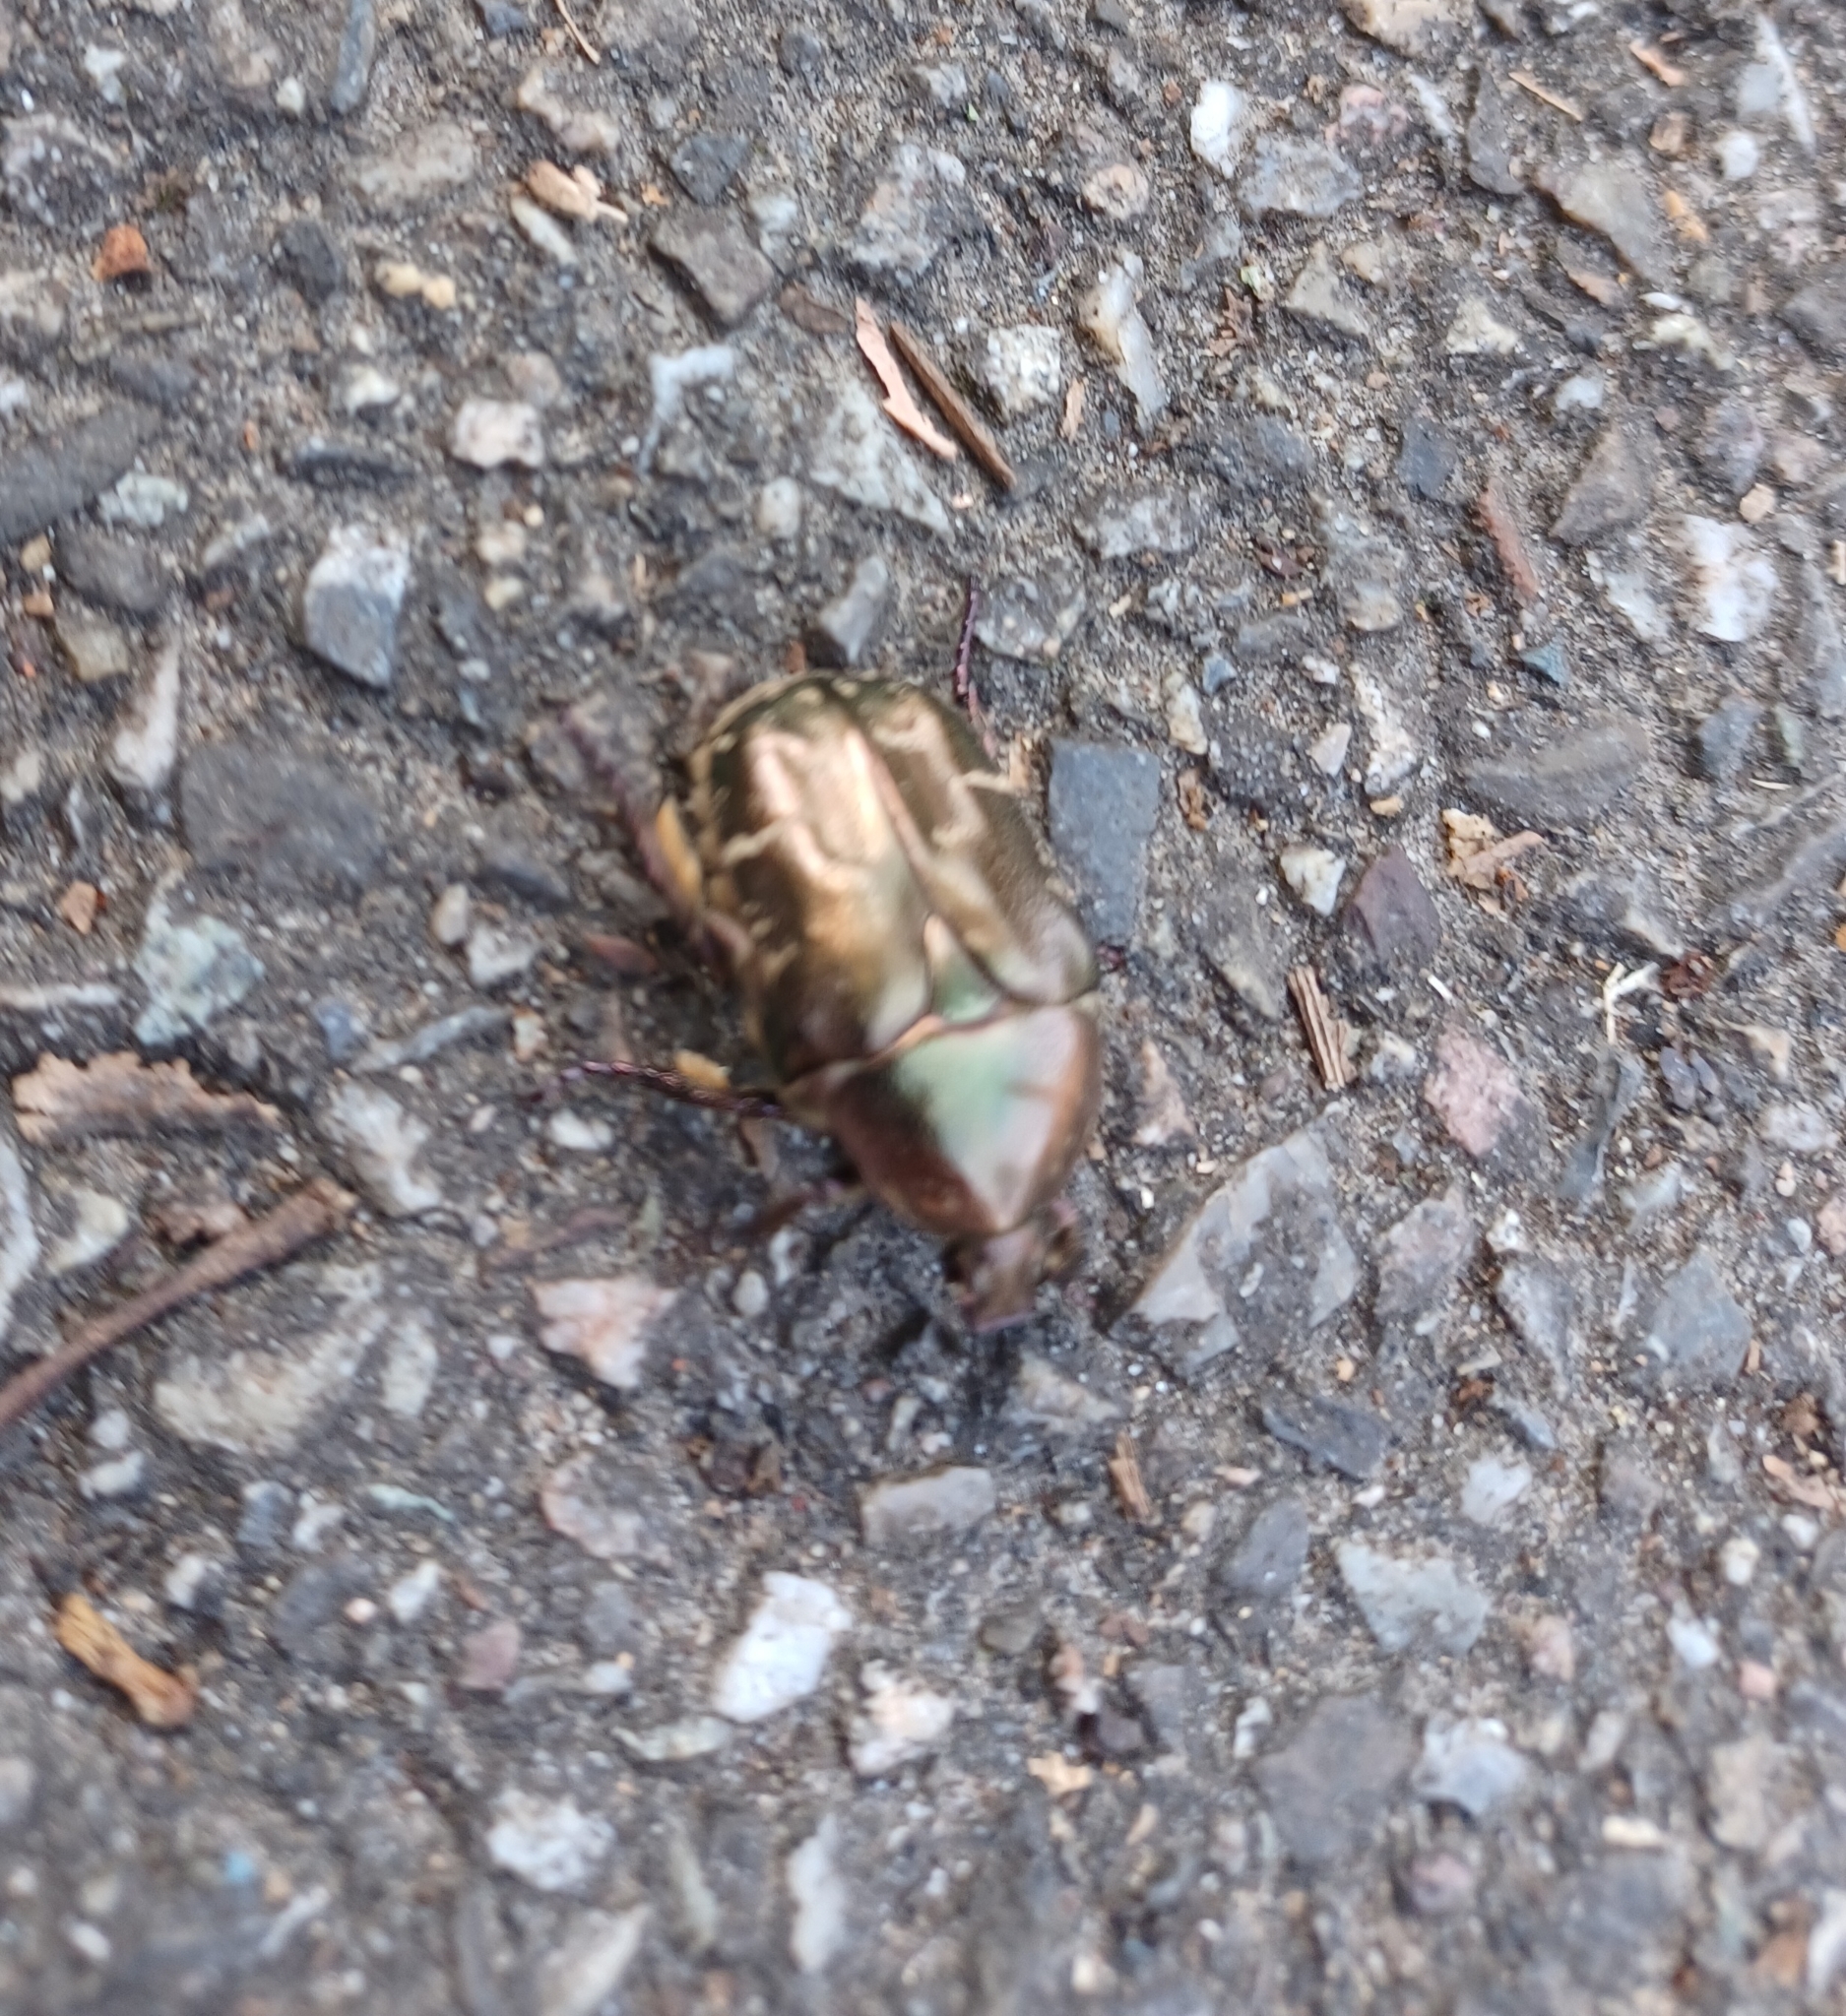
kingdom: Animalia
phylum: Arthropoda
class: Insecta
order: Coleoptera
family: Scarabaeidae
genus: Protaetia
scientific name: Protaetia cuprea
